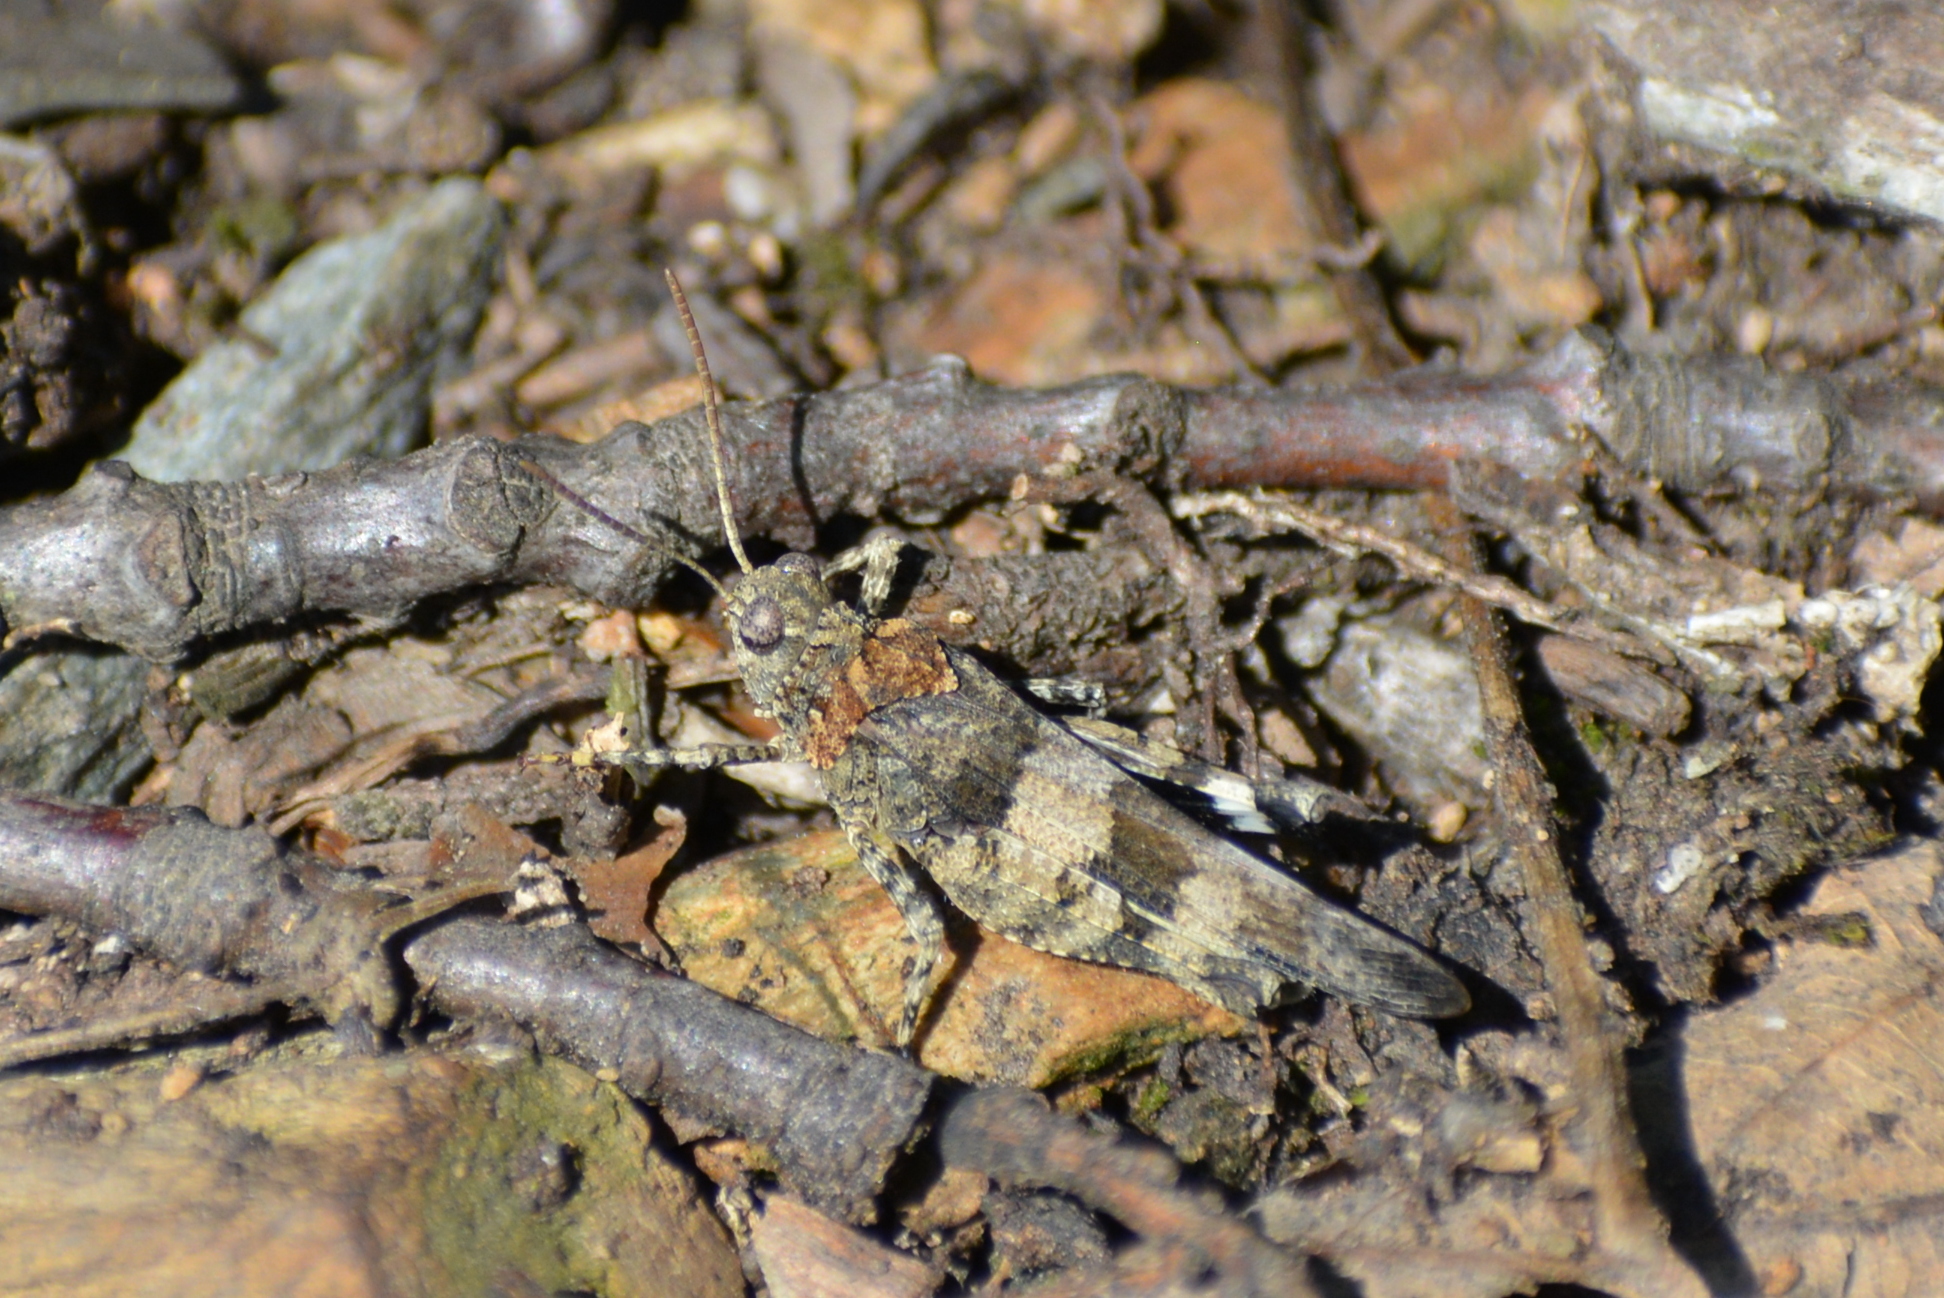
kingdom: Animalia
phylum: Arthropoda
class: Insecta
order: Orthoptera
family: Acrididae
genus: Oedipoda
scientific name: Oedipoda caerulescens
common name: Blue-winged grasshopper
